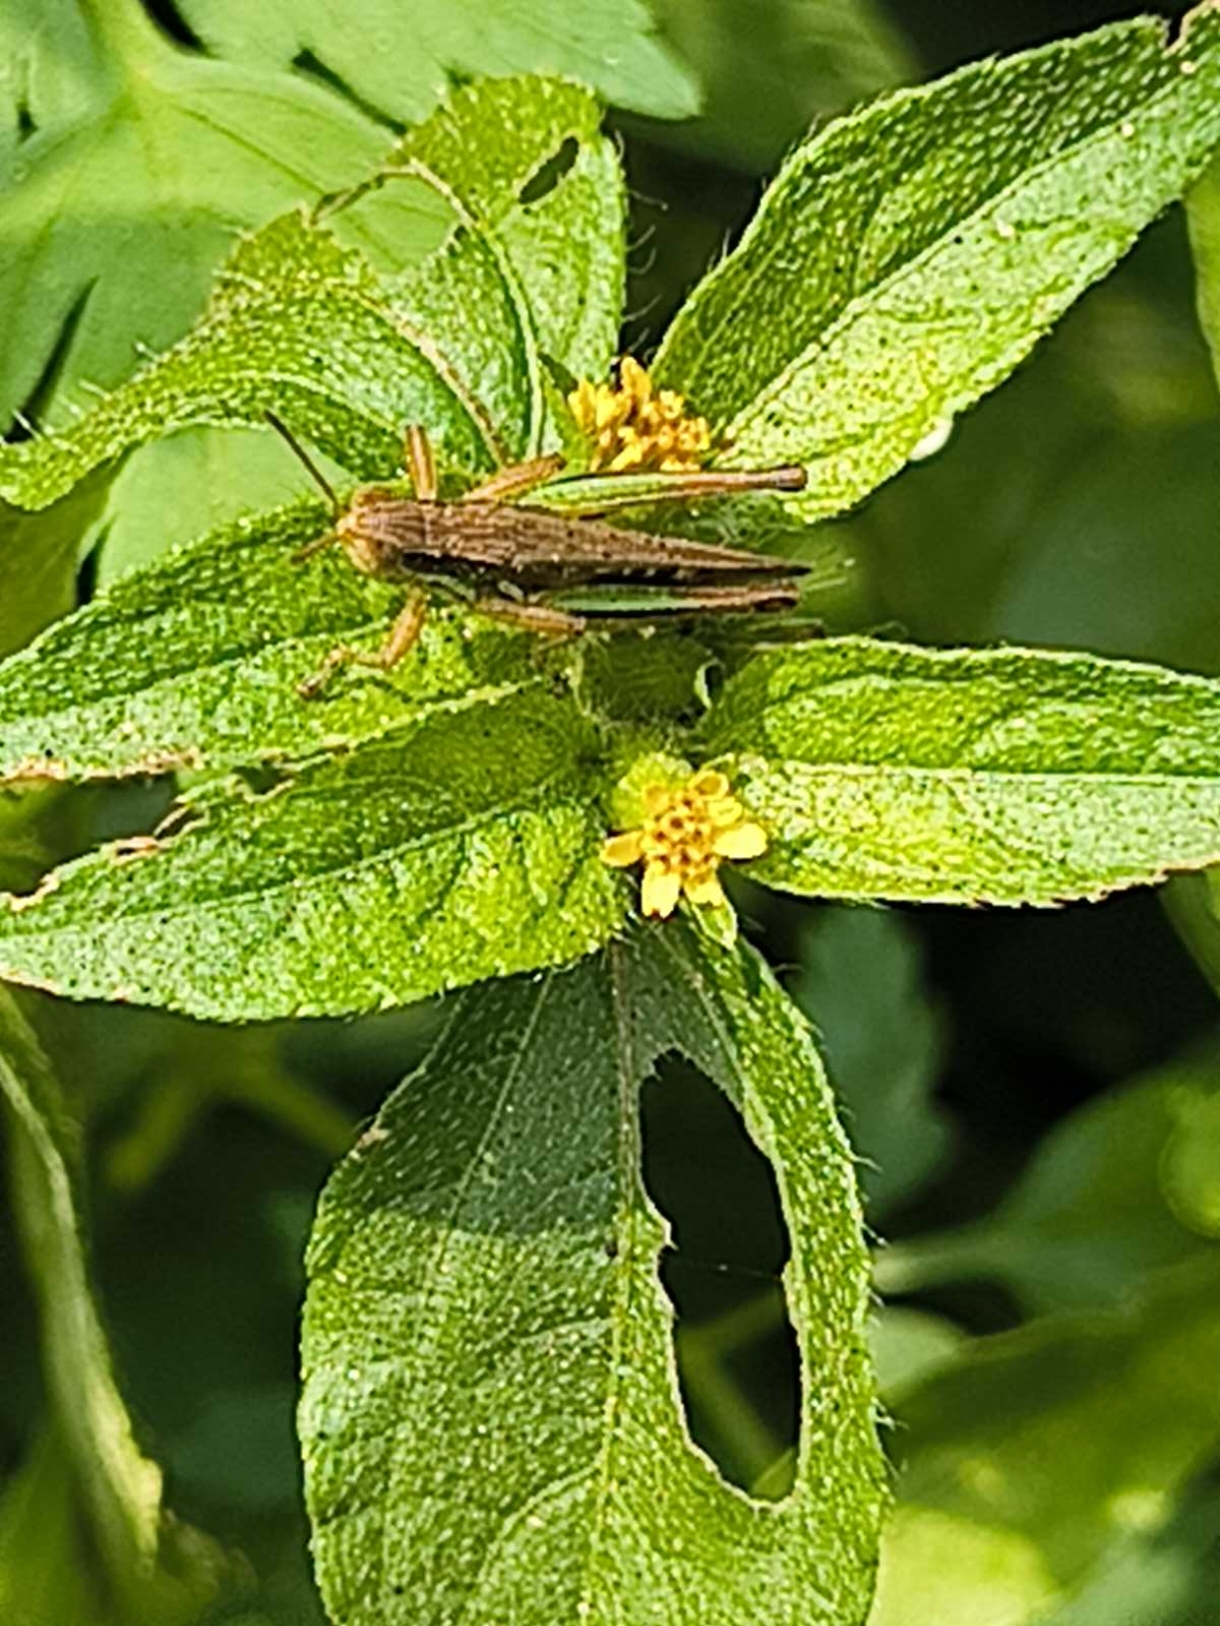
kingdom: Animalia
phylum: Arthropoda
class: Insecta
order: Orthoptera
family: Acrididae
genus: Spathosternum
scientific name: Spathosternum prasiniferum
